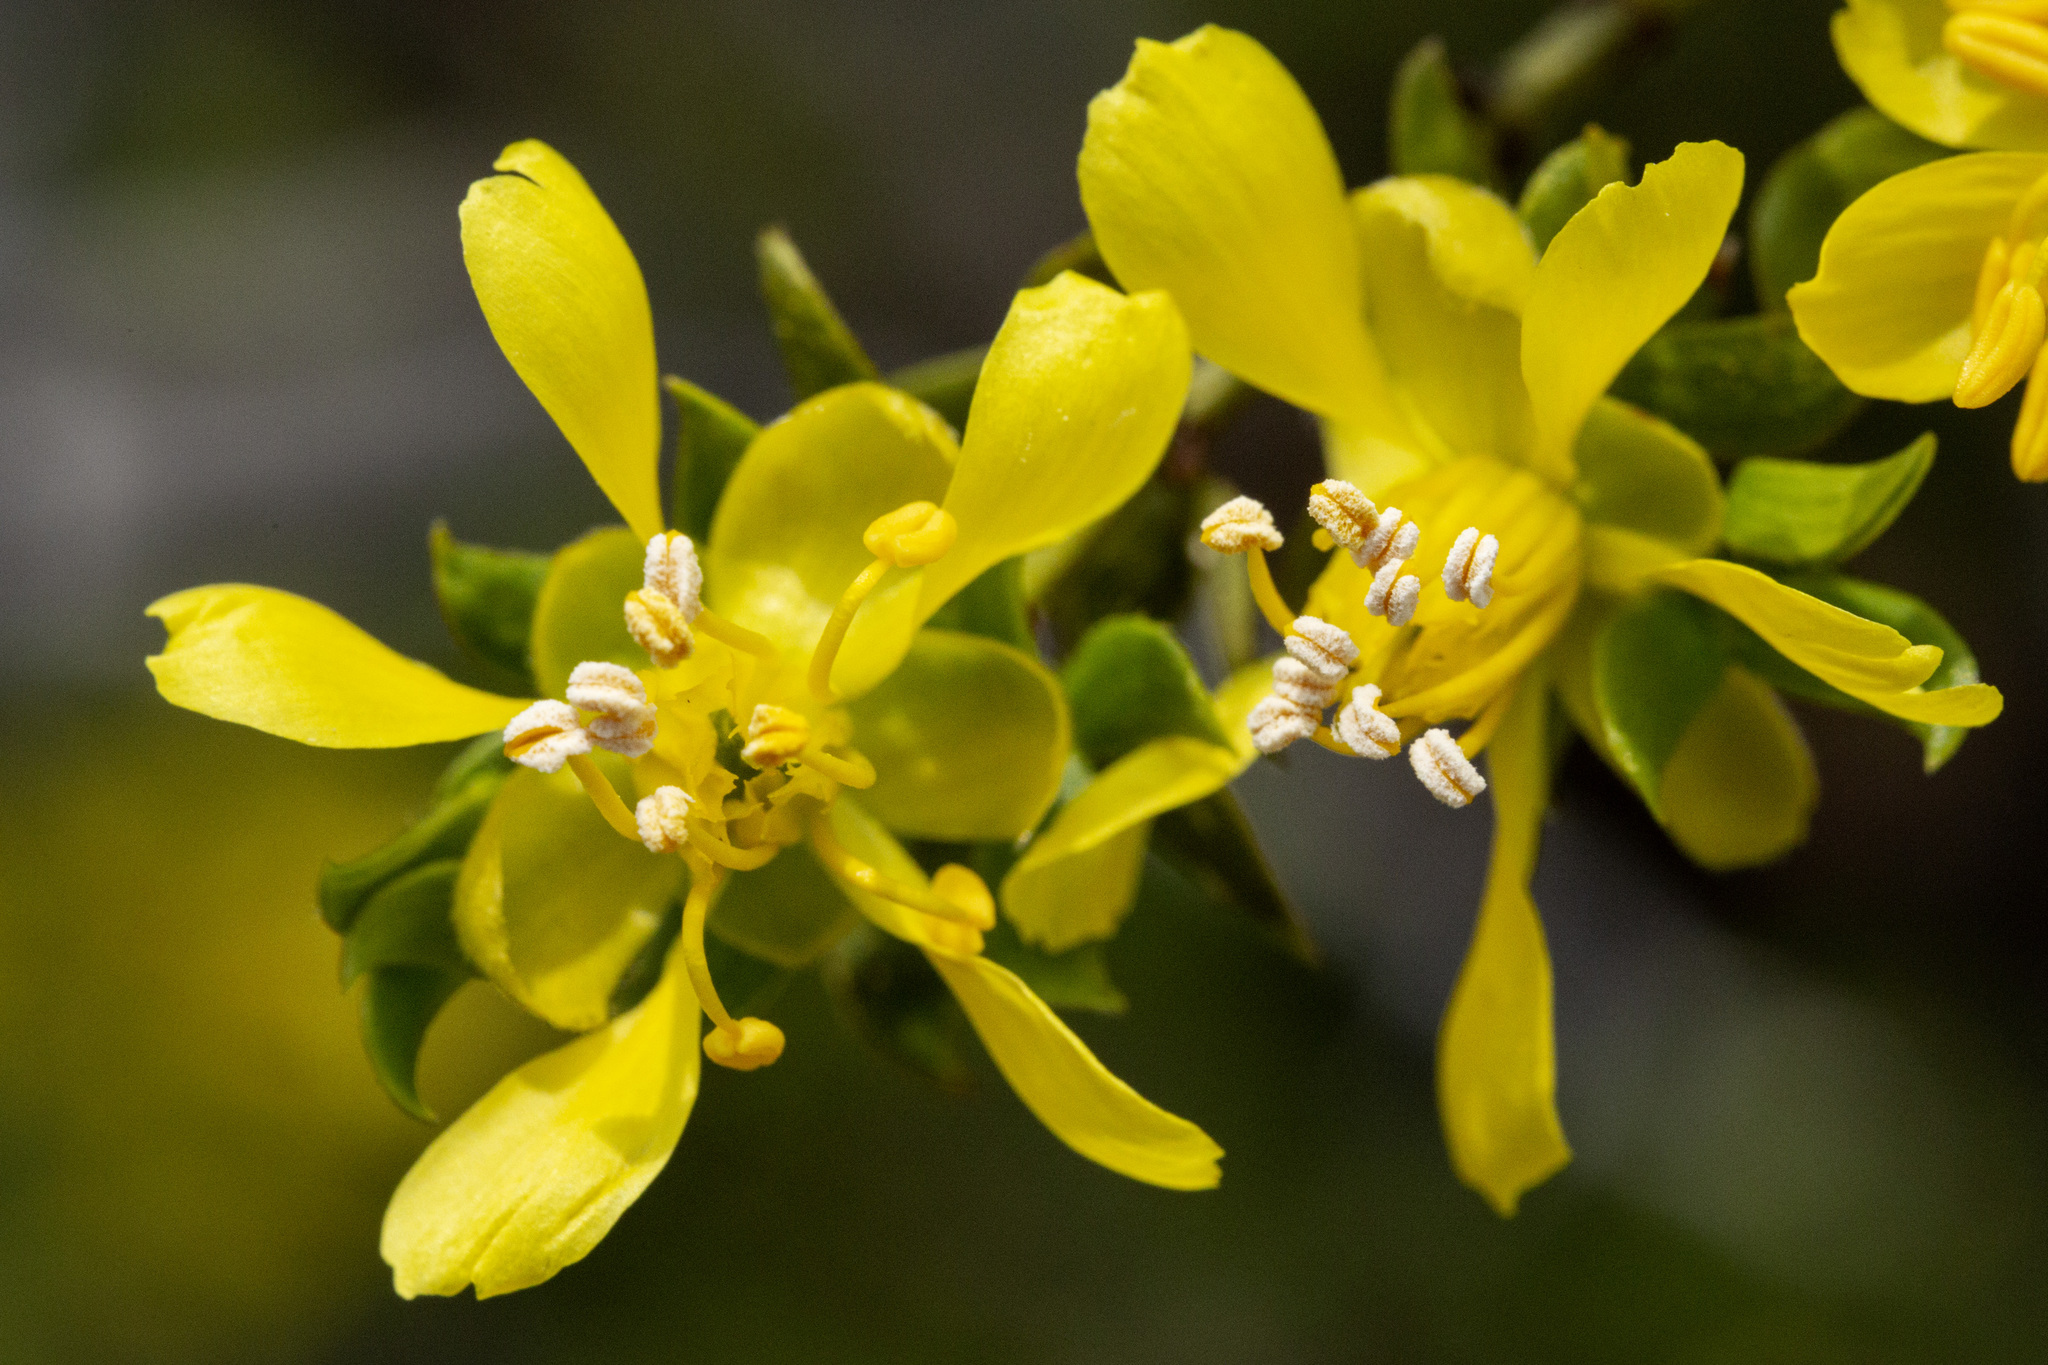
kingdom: Plantae
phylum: Tracheophyta
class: Magnoliopsida
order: Zygophyllales
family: Zygophyllaceae
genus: Larrea
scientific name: Larrea tridentata
